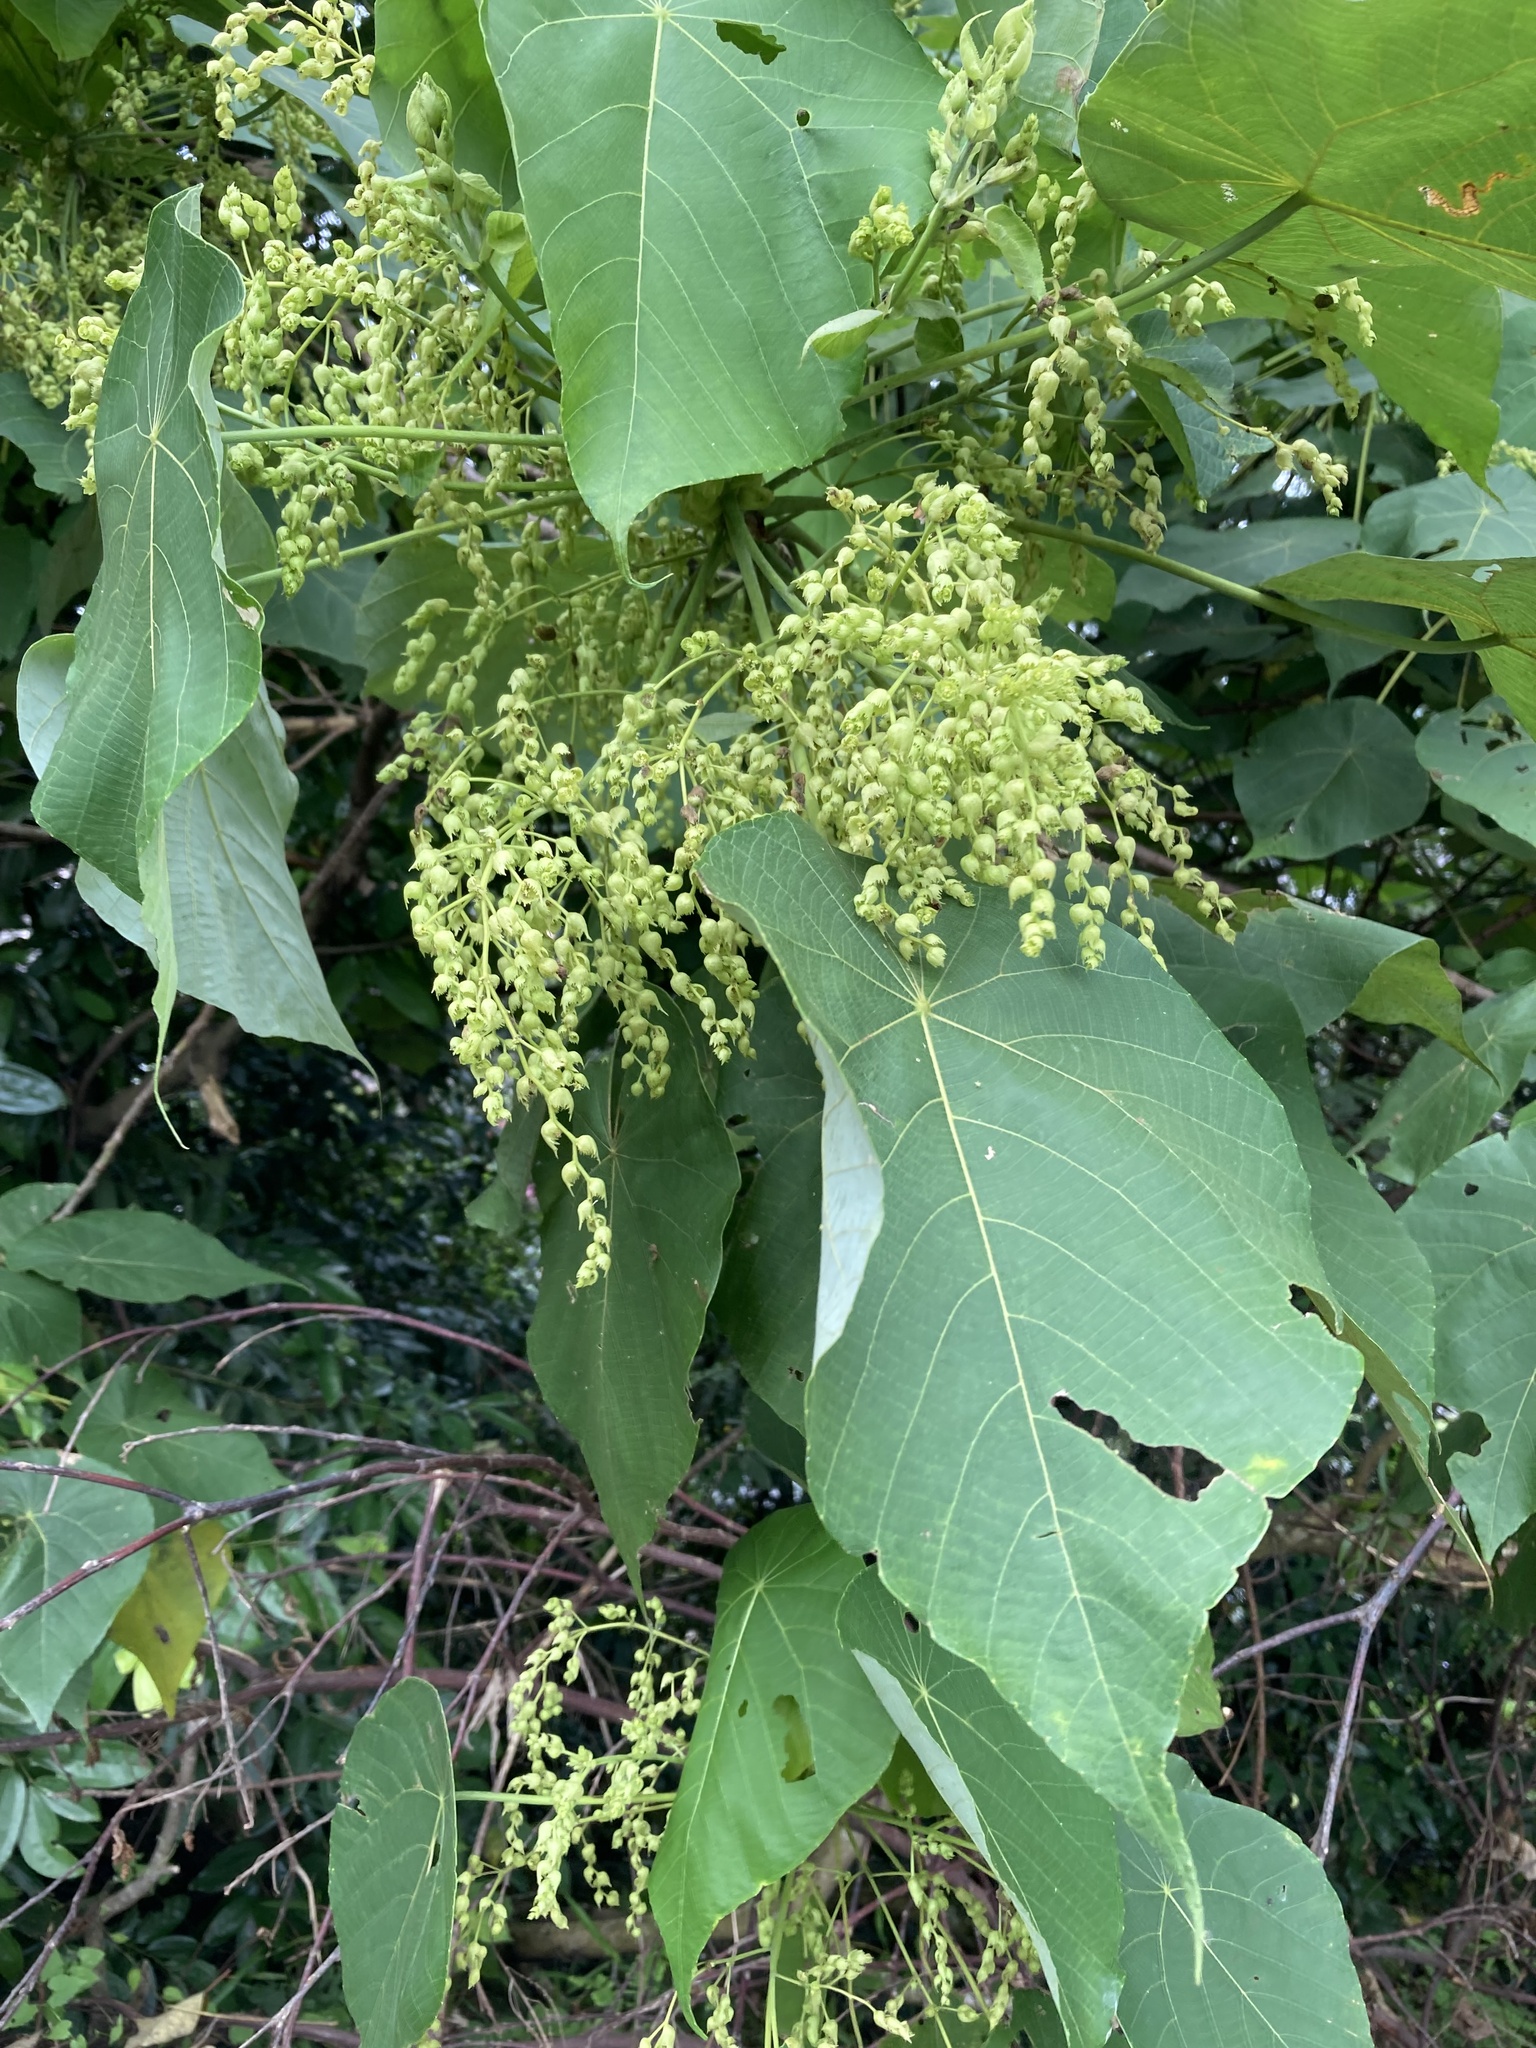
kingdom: Plantae
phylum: Tracheophyta
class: Magnoliopsida
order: Malpighiales
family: Euphorbiaceae
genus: Macaranga
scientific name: Macaranga tanarius
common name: Parasol leaf tree
